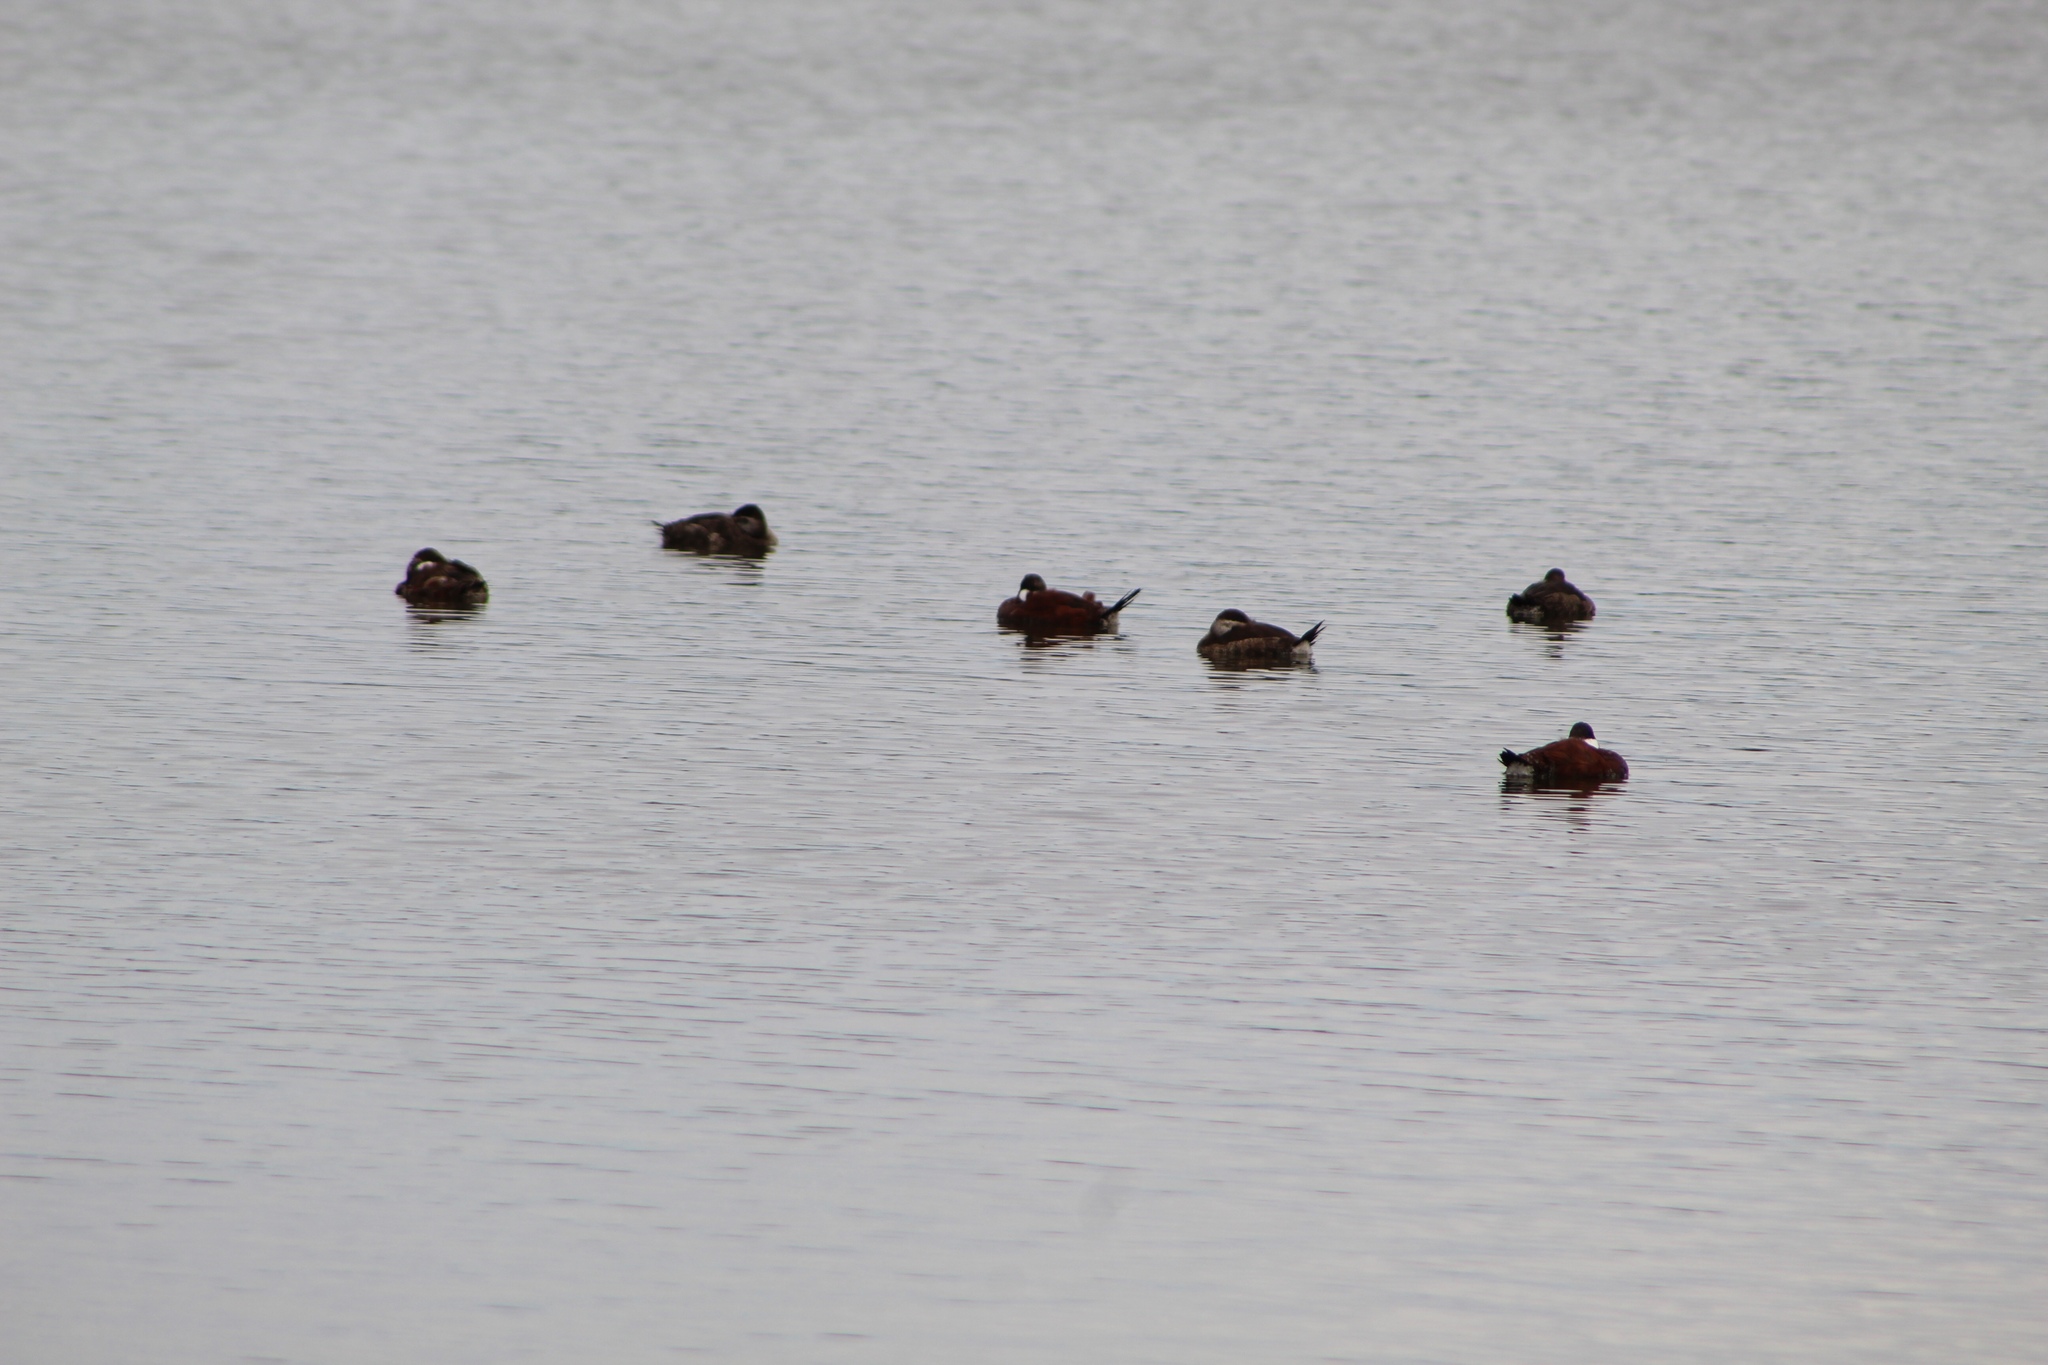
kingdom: Animalia
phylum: Chordata
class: Aves
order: Anseriformes
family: Anatidae
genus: Oxyura
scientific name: Oxyura jamaicensis
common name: Ruddy duck
